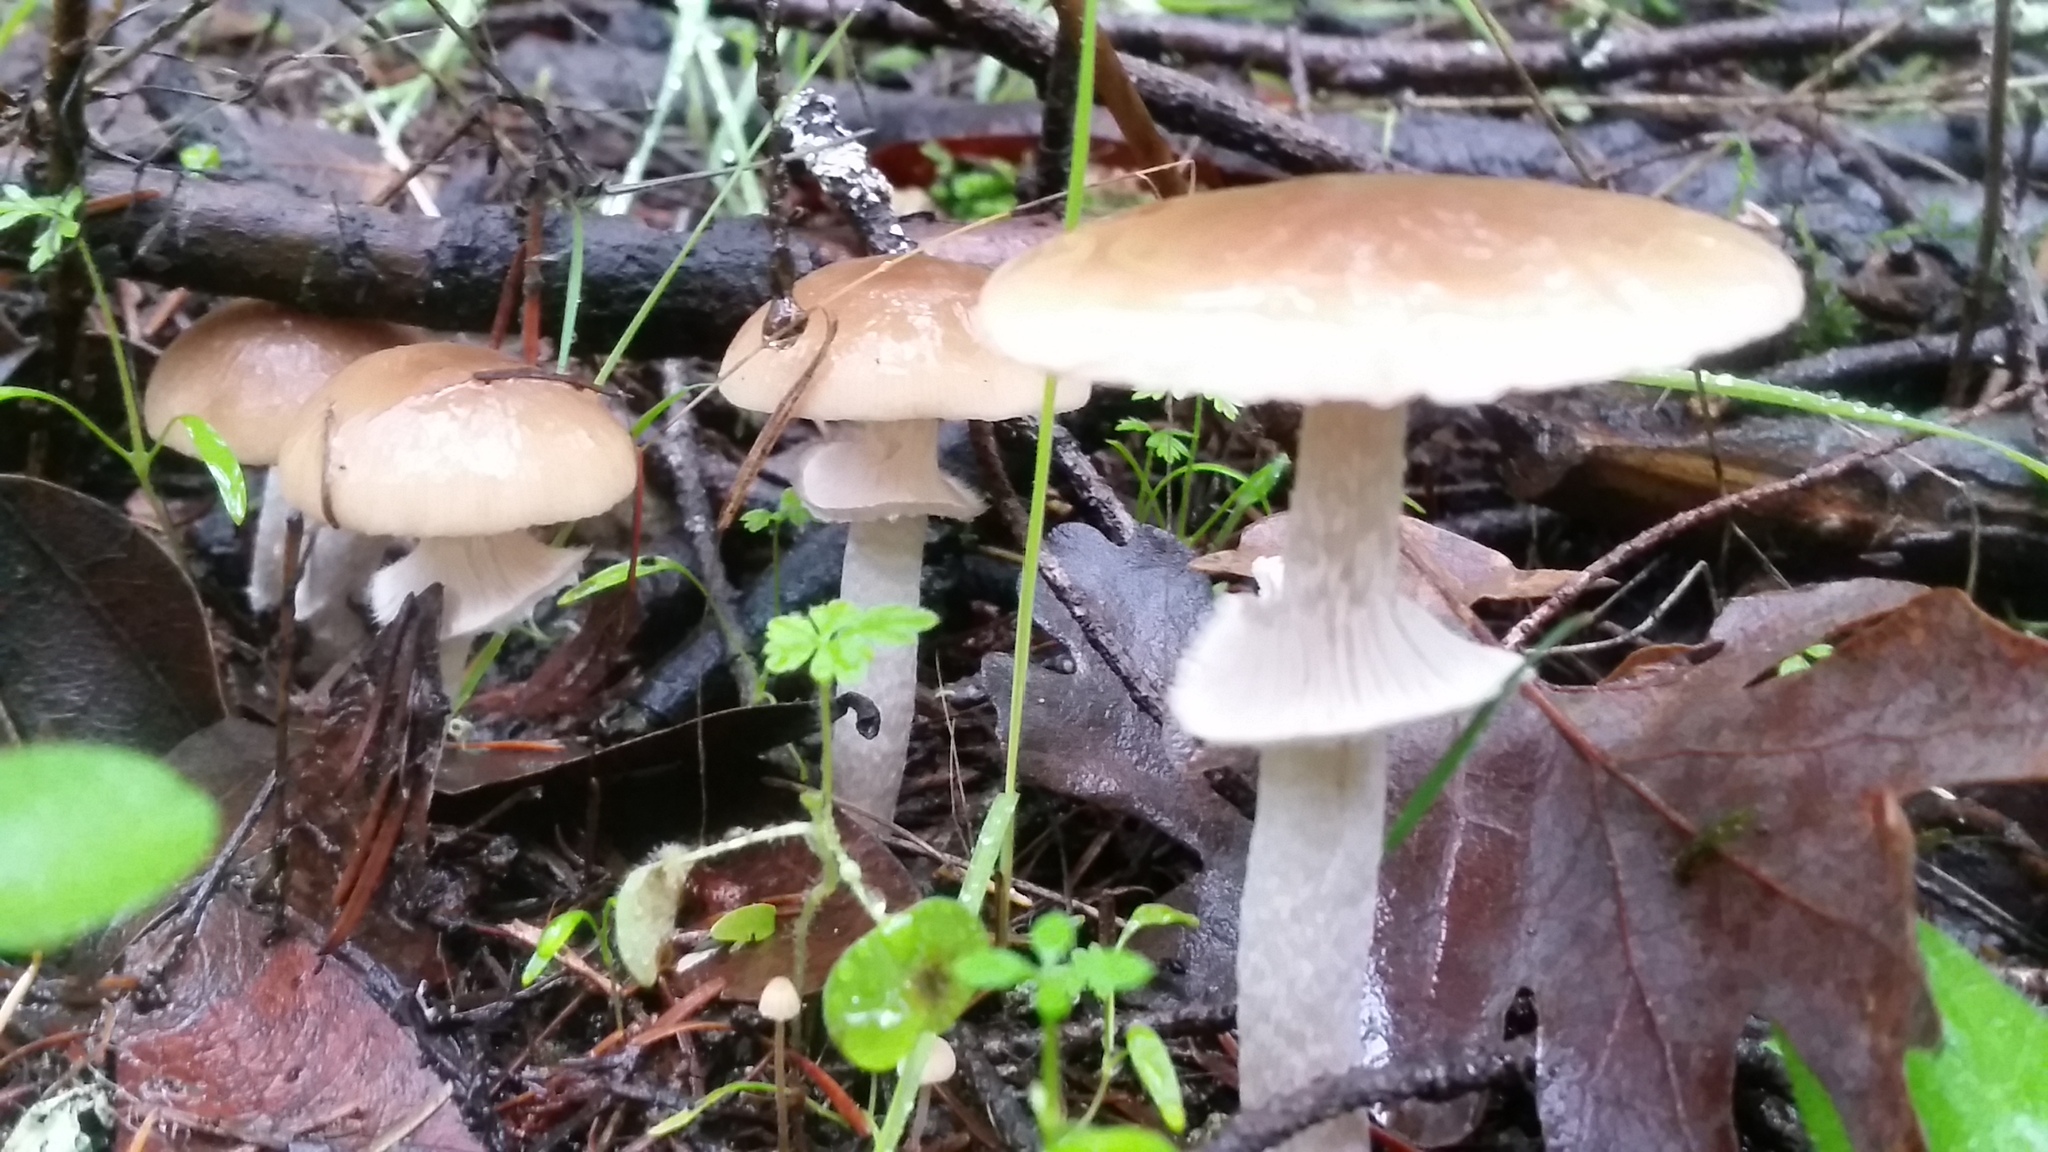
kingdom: Fungi
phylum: Basidiomycota
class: Agaricomycetes
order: Agaricales
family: Psathyrellaceae
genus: Psathyrella
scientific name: Psathyrella longistriata
